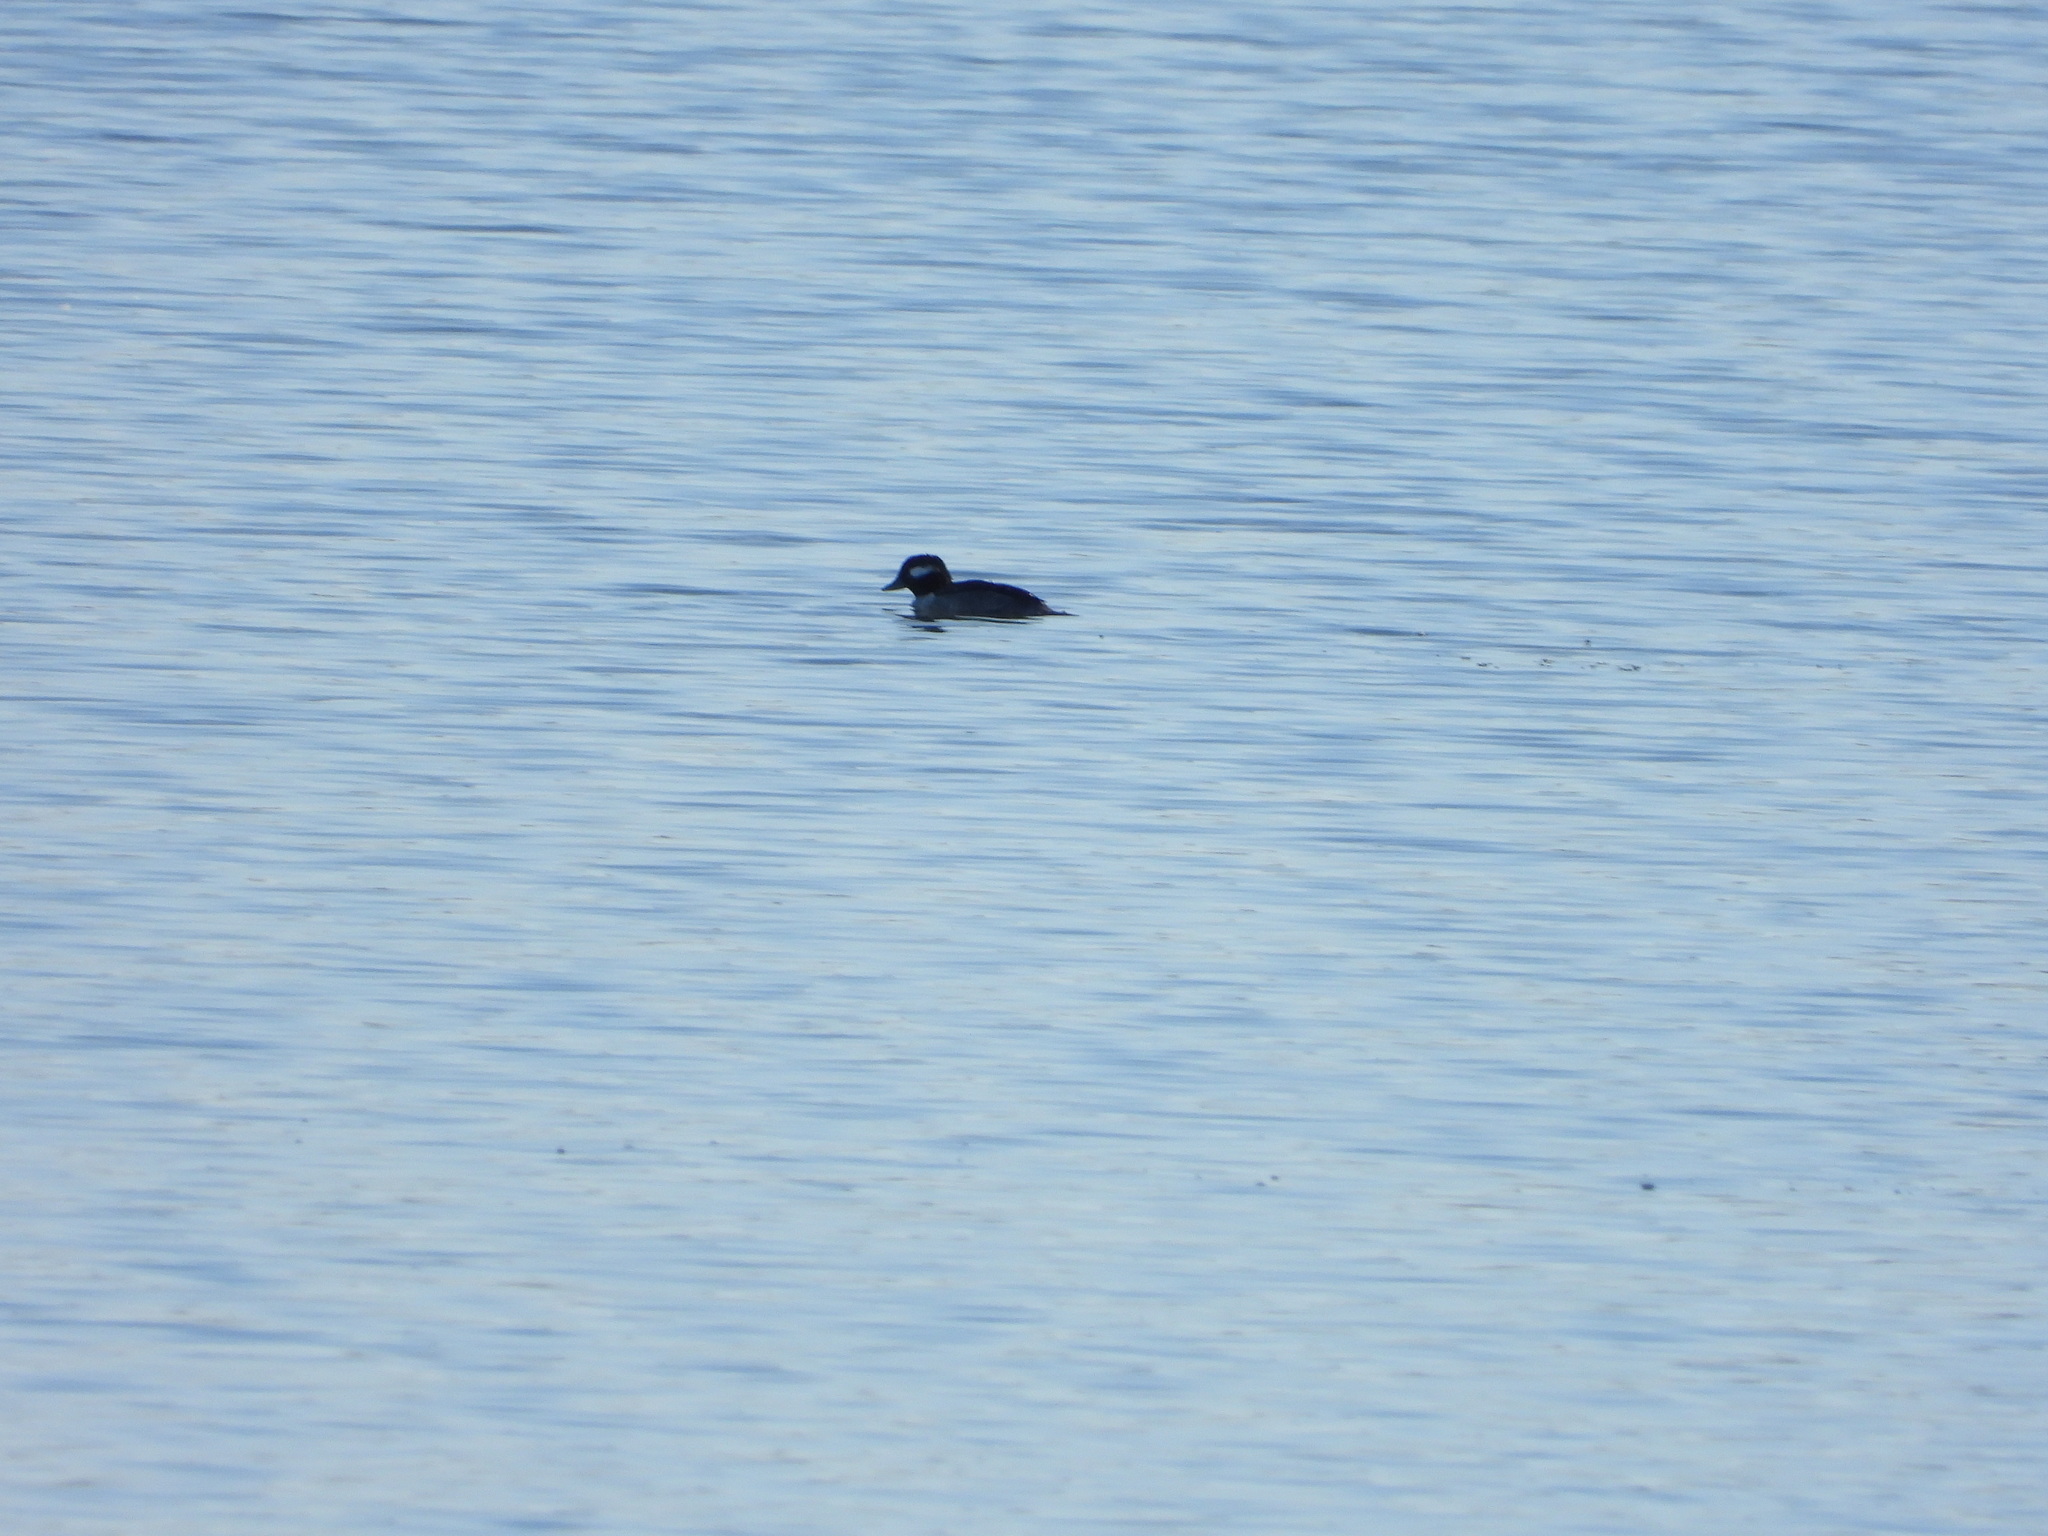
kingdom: Animalia
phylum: Chordata
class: Aves
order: Anseriformes
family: Anatidae
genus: Bucephala
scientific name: Bucephala albeola
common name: Bufflehead
